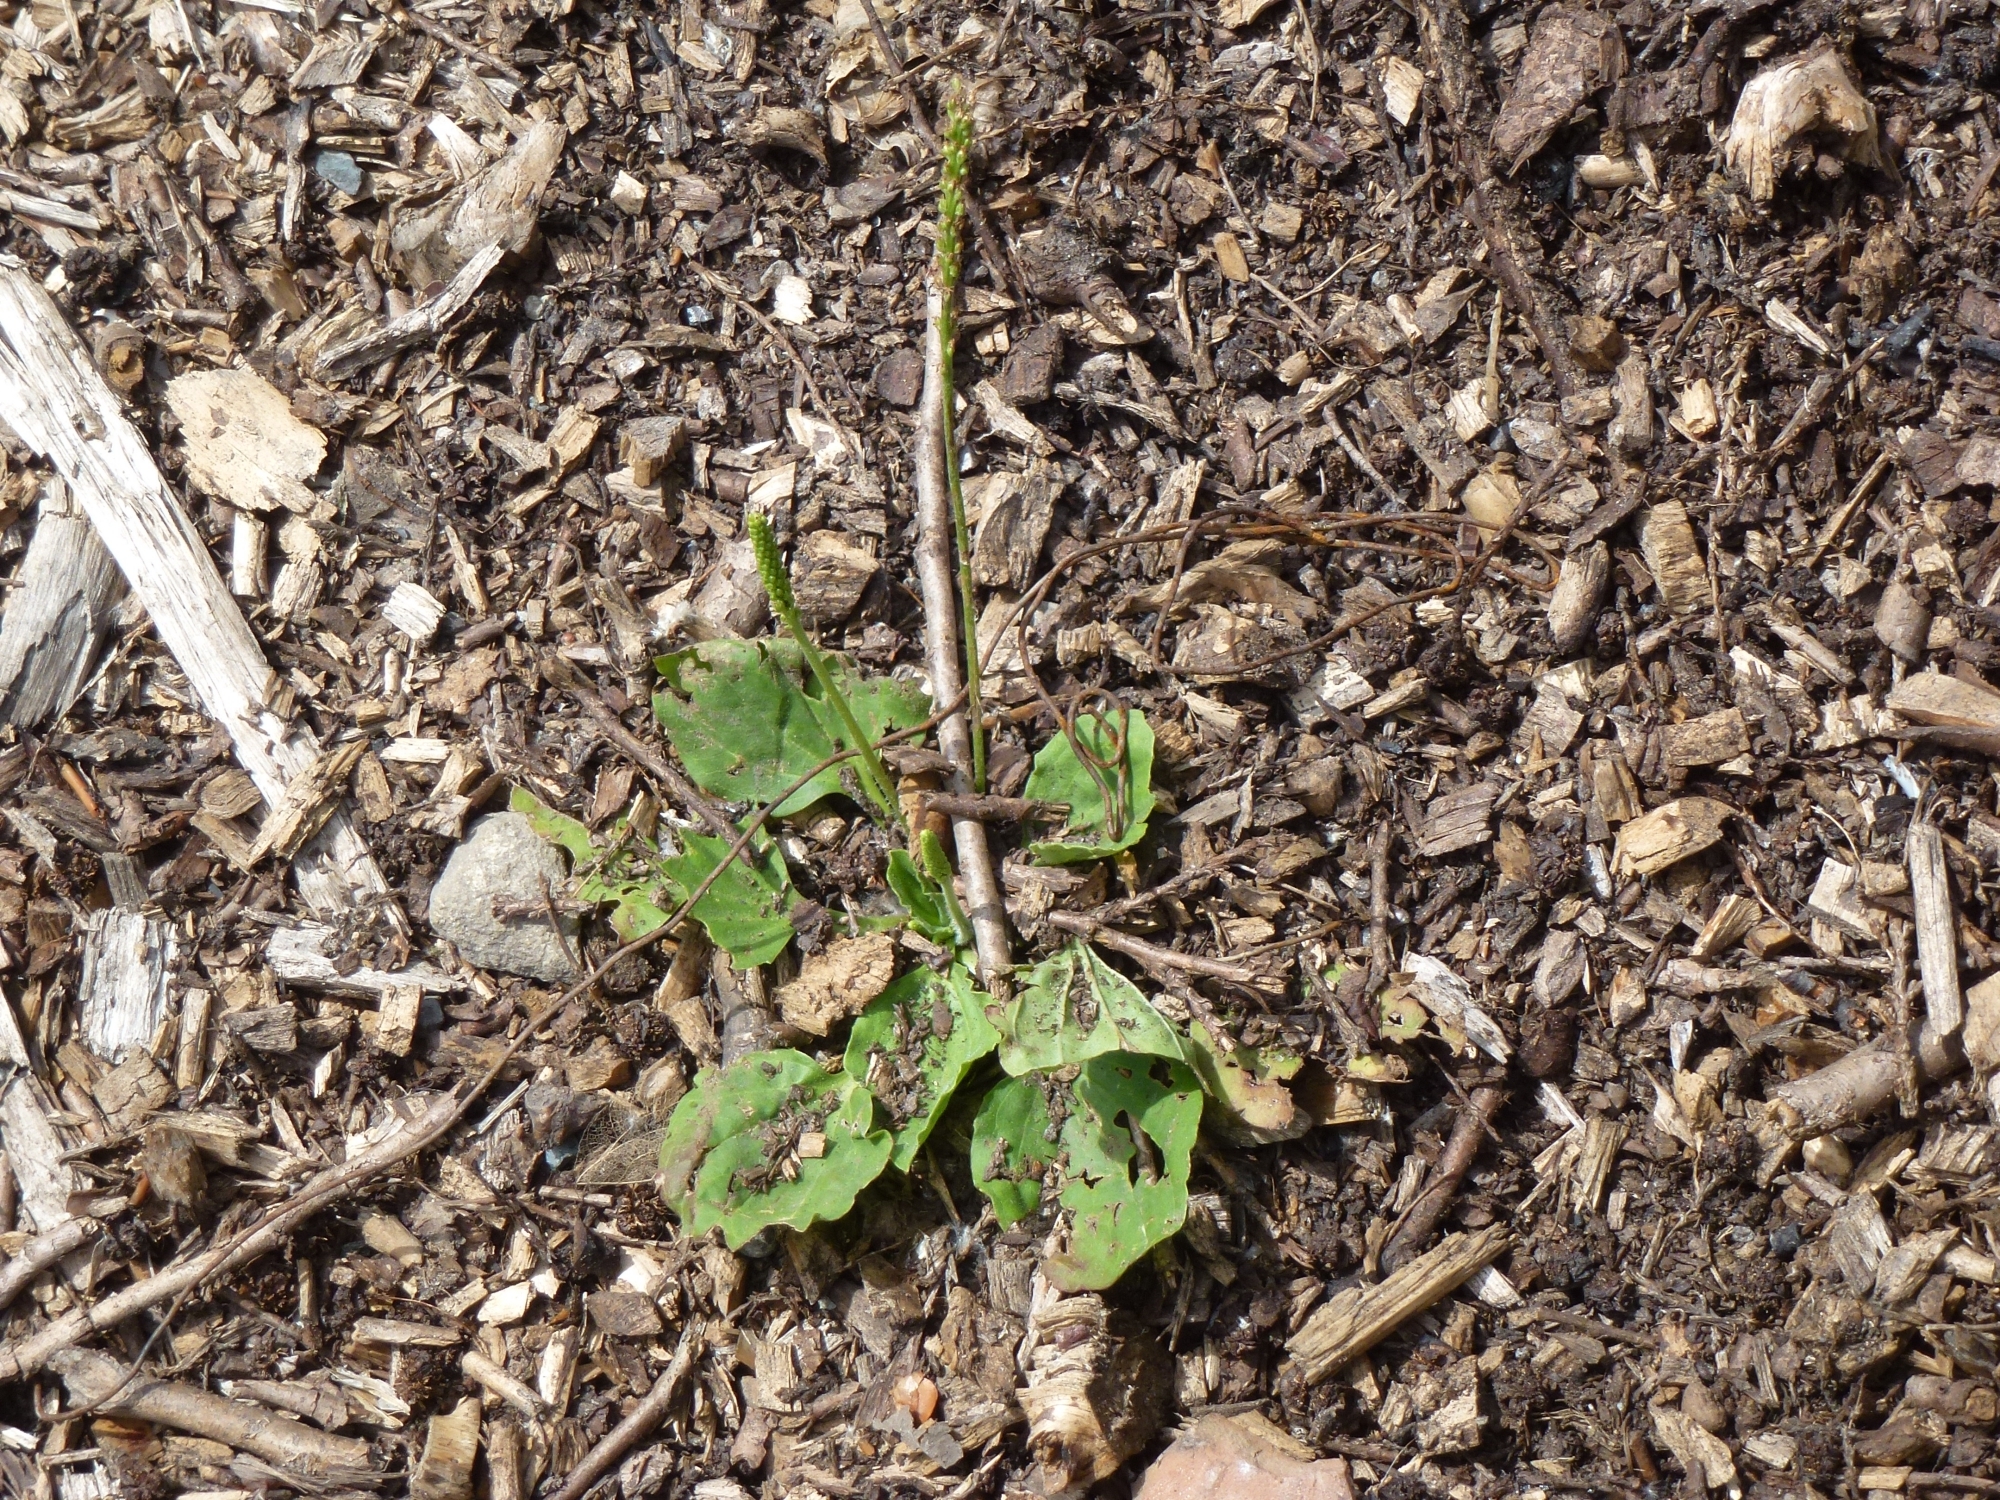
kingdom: Plantae
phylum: Tracheophyta
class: Magnoliopsida
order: Lamiales
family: Plantaginaceae
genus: Plantago
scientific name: Plantago major
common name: Common plantain
